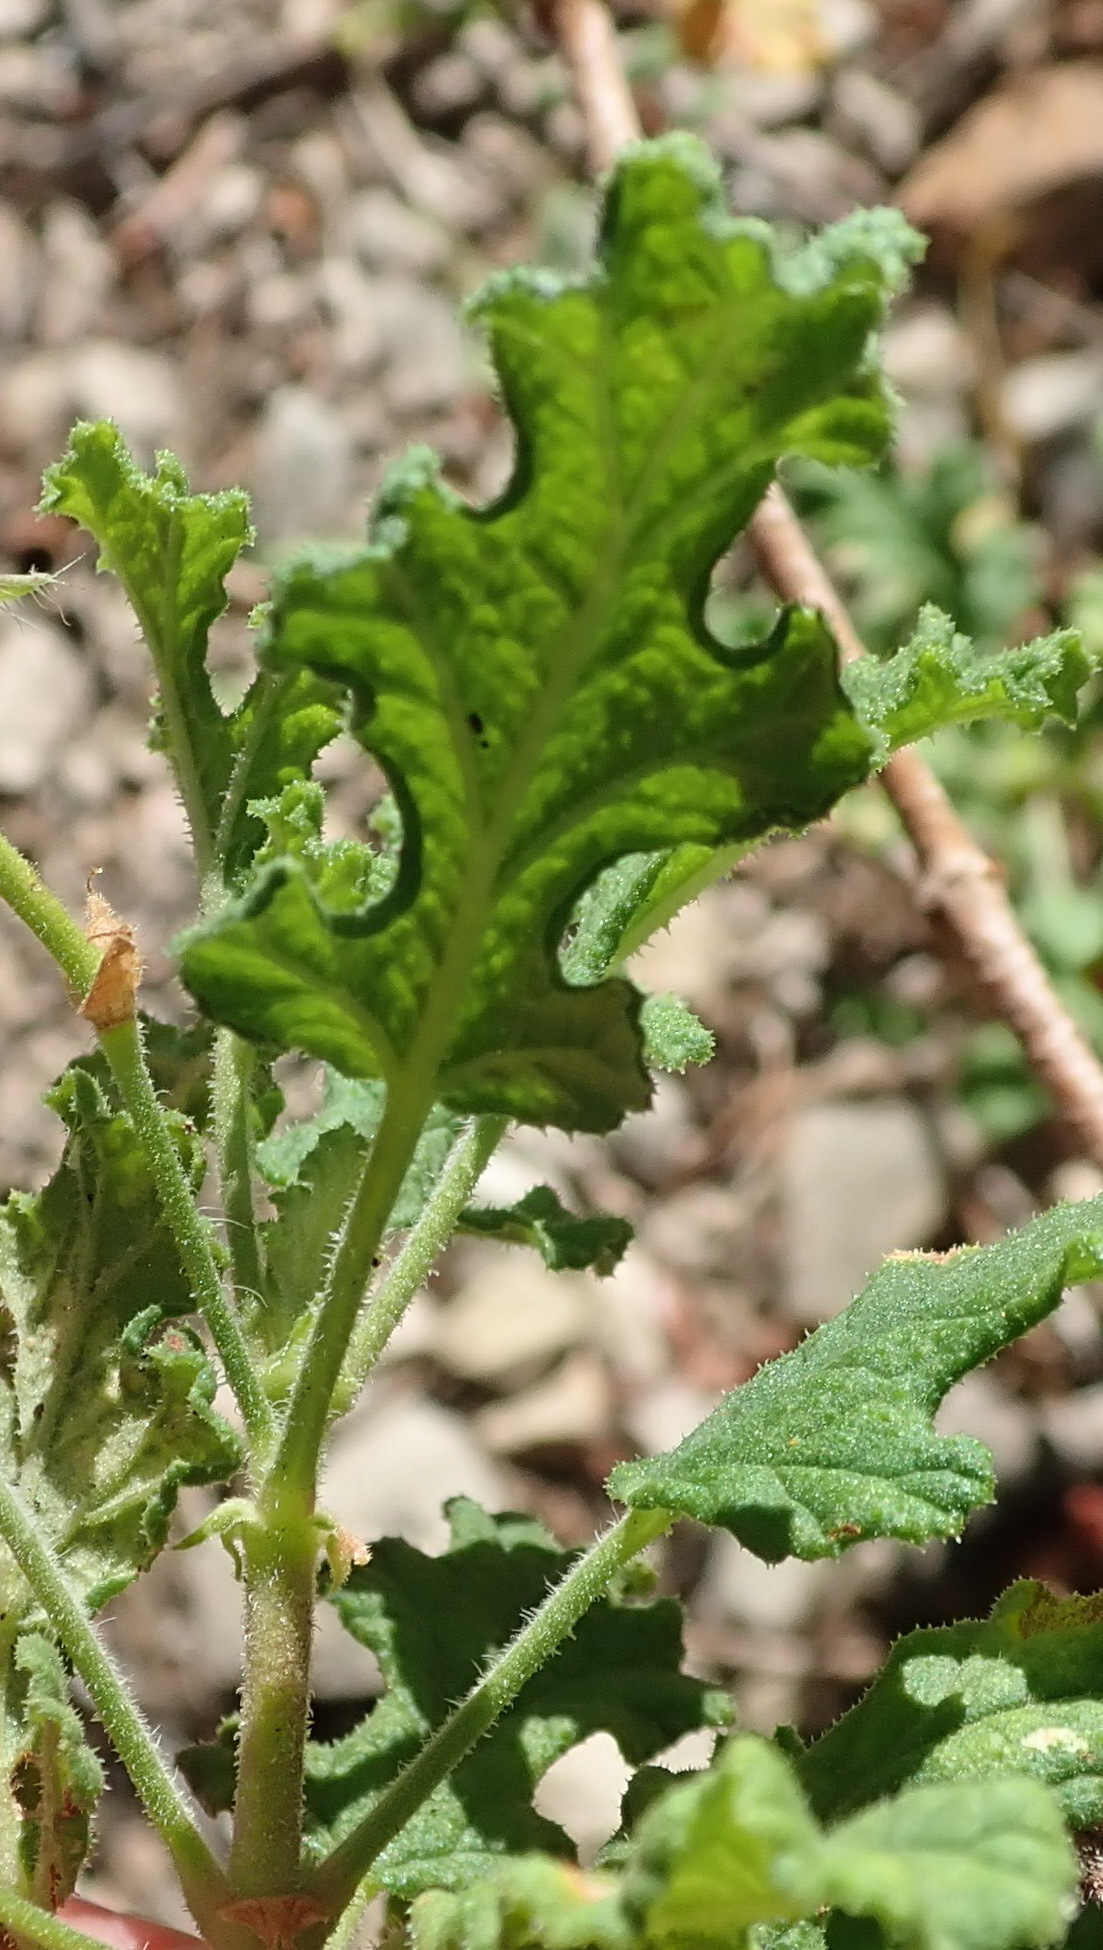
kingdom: Plantae
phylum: Tracheophyta
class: Magnoliopsida
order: Geraniales
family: Geraniaceae
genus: Pelargonium
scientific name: Pelargonium quercifolium
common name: Oakleaf geranium
